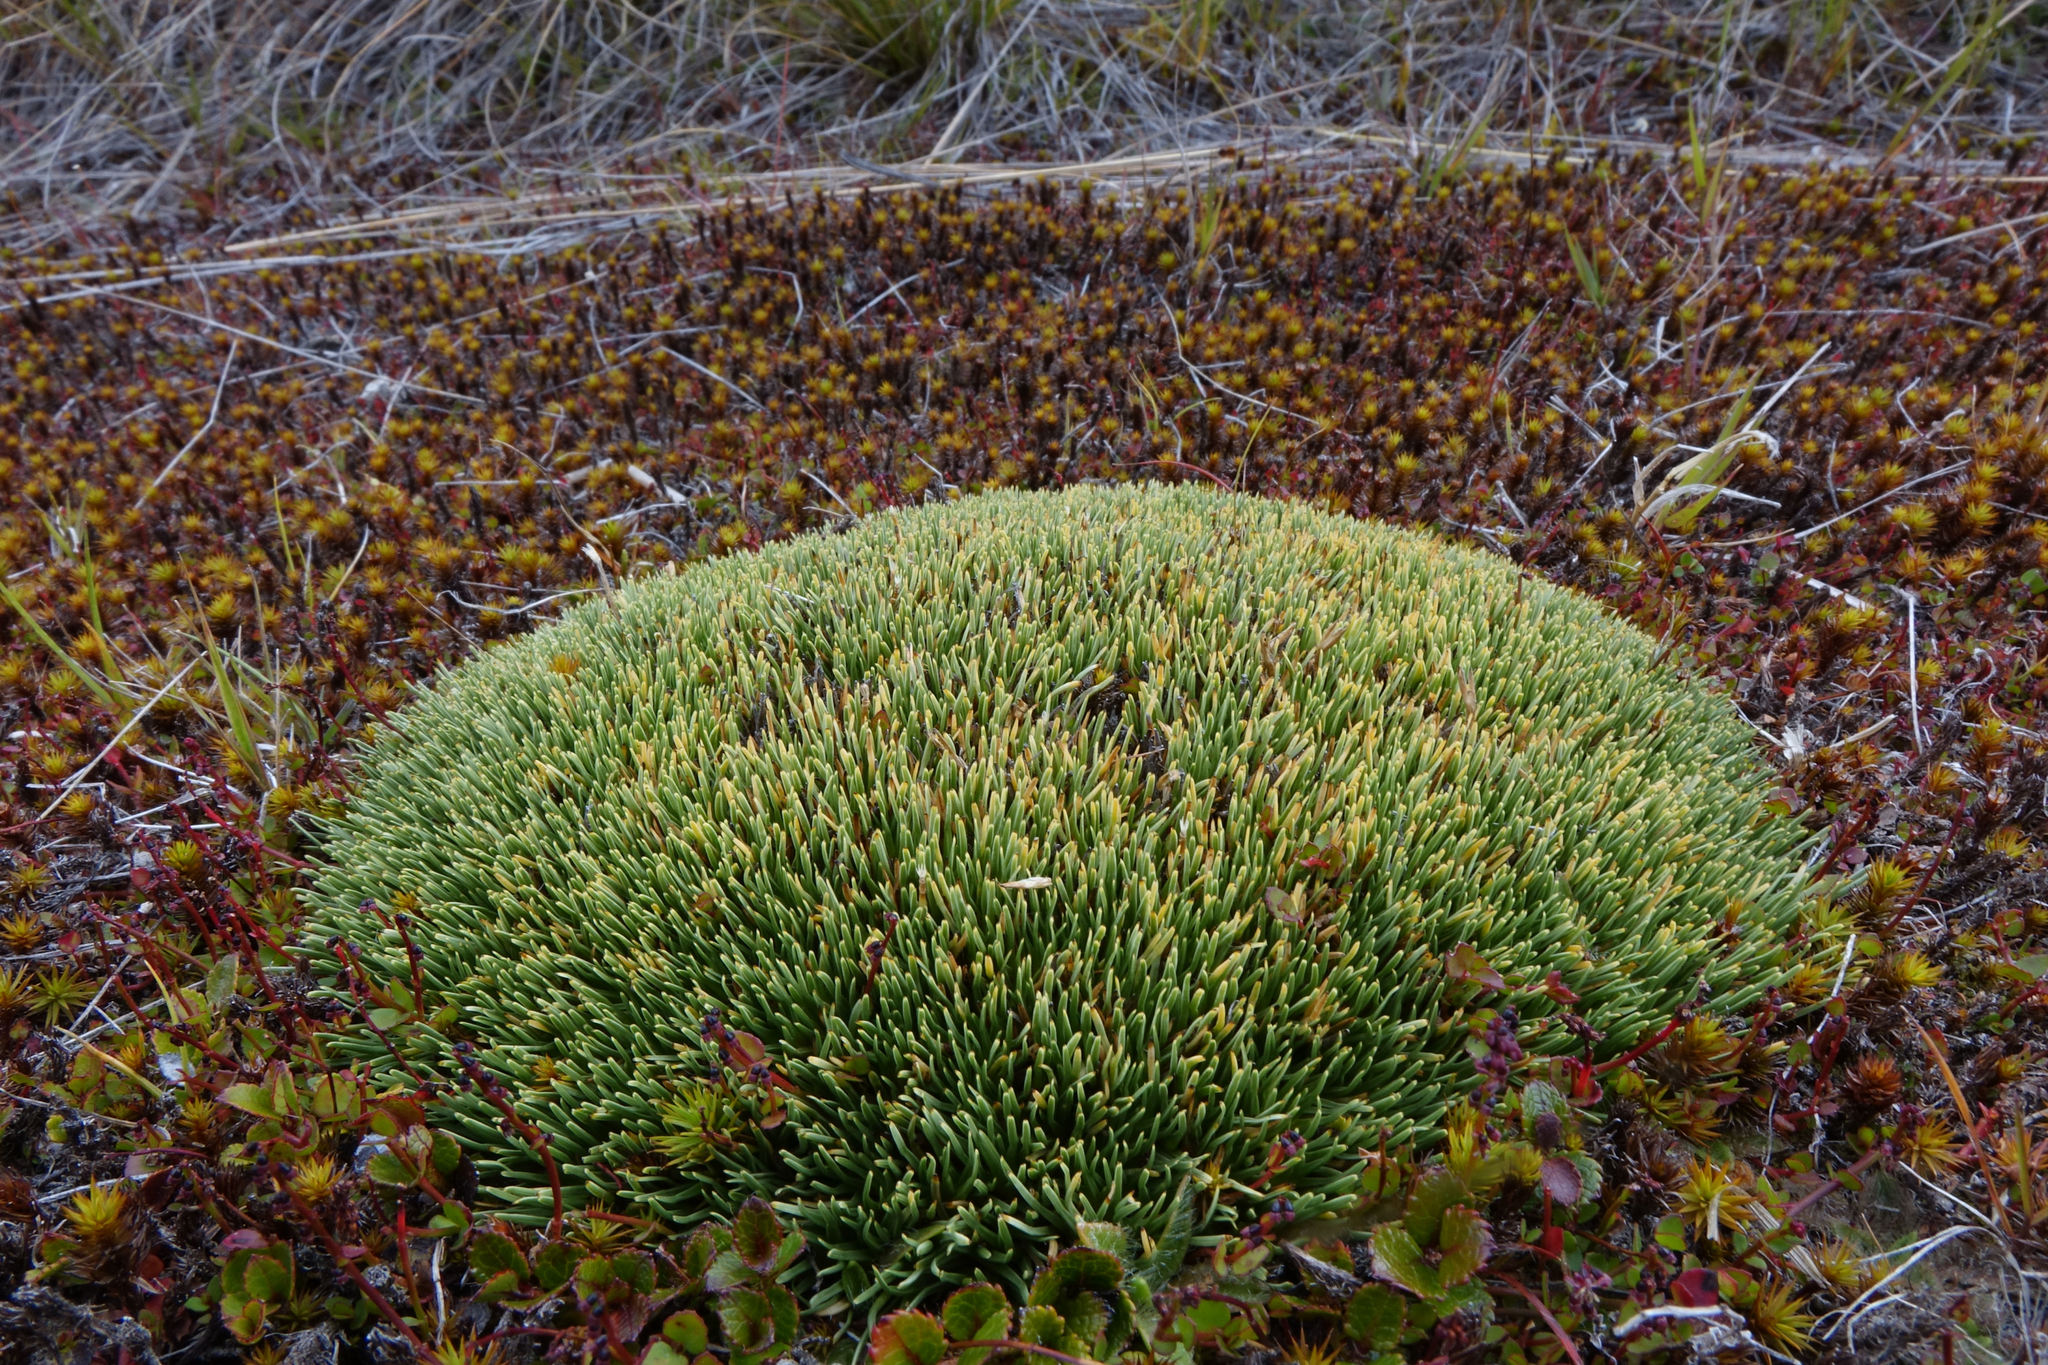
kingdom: Plantae
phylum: Tracheophyta
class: Liliopsida
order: Poales
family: Cyperaceae
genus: Oreobolus
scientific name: Oreobolus pectinatus
